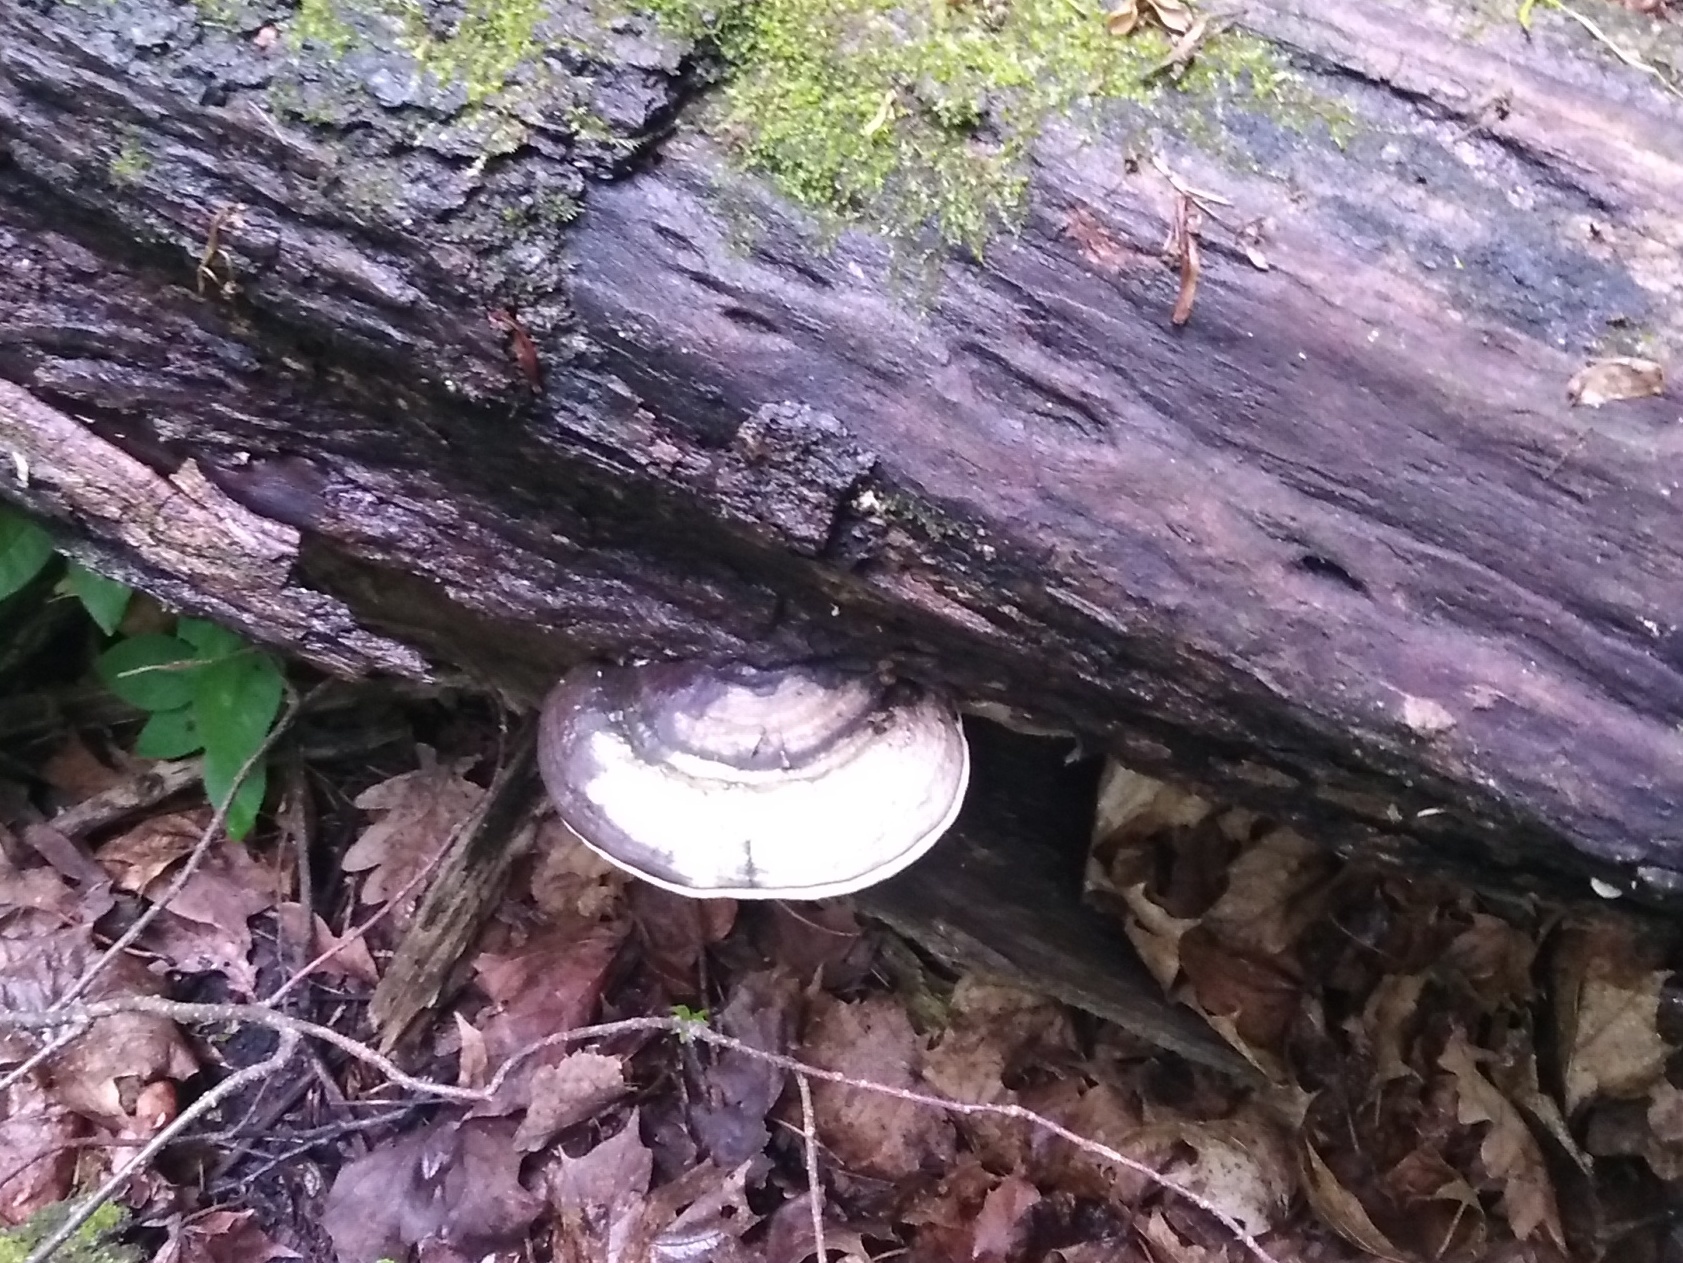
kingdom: Fungi
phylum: Basidiomycota
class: Agaricomycetes
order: Polyporales
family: Polyporaceae
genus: Fomes
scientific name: Fomes fomentarius
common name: Hoof fungus
